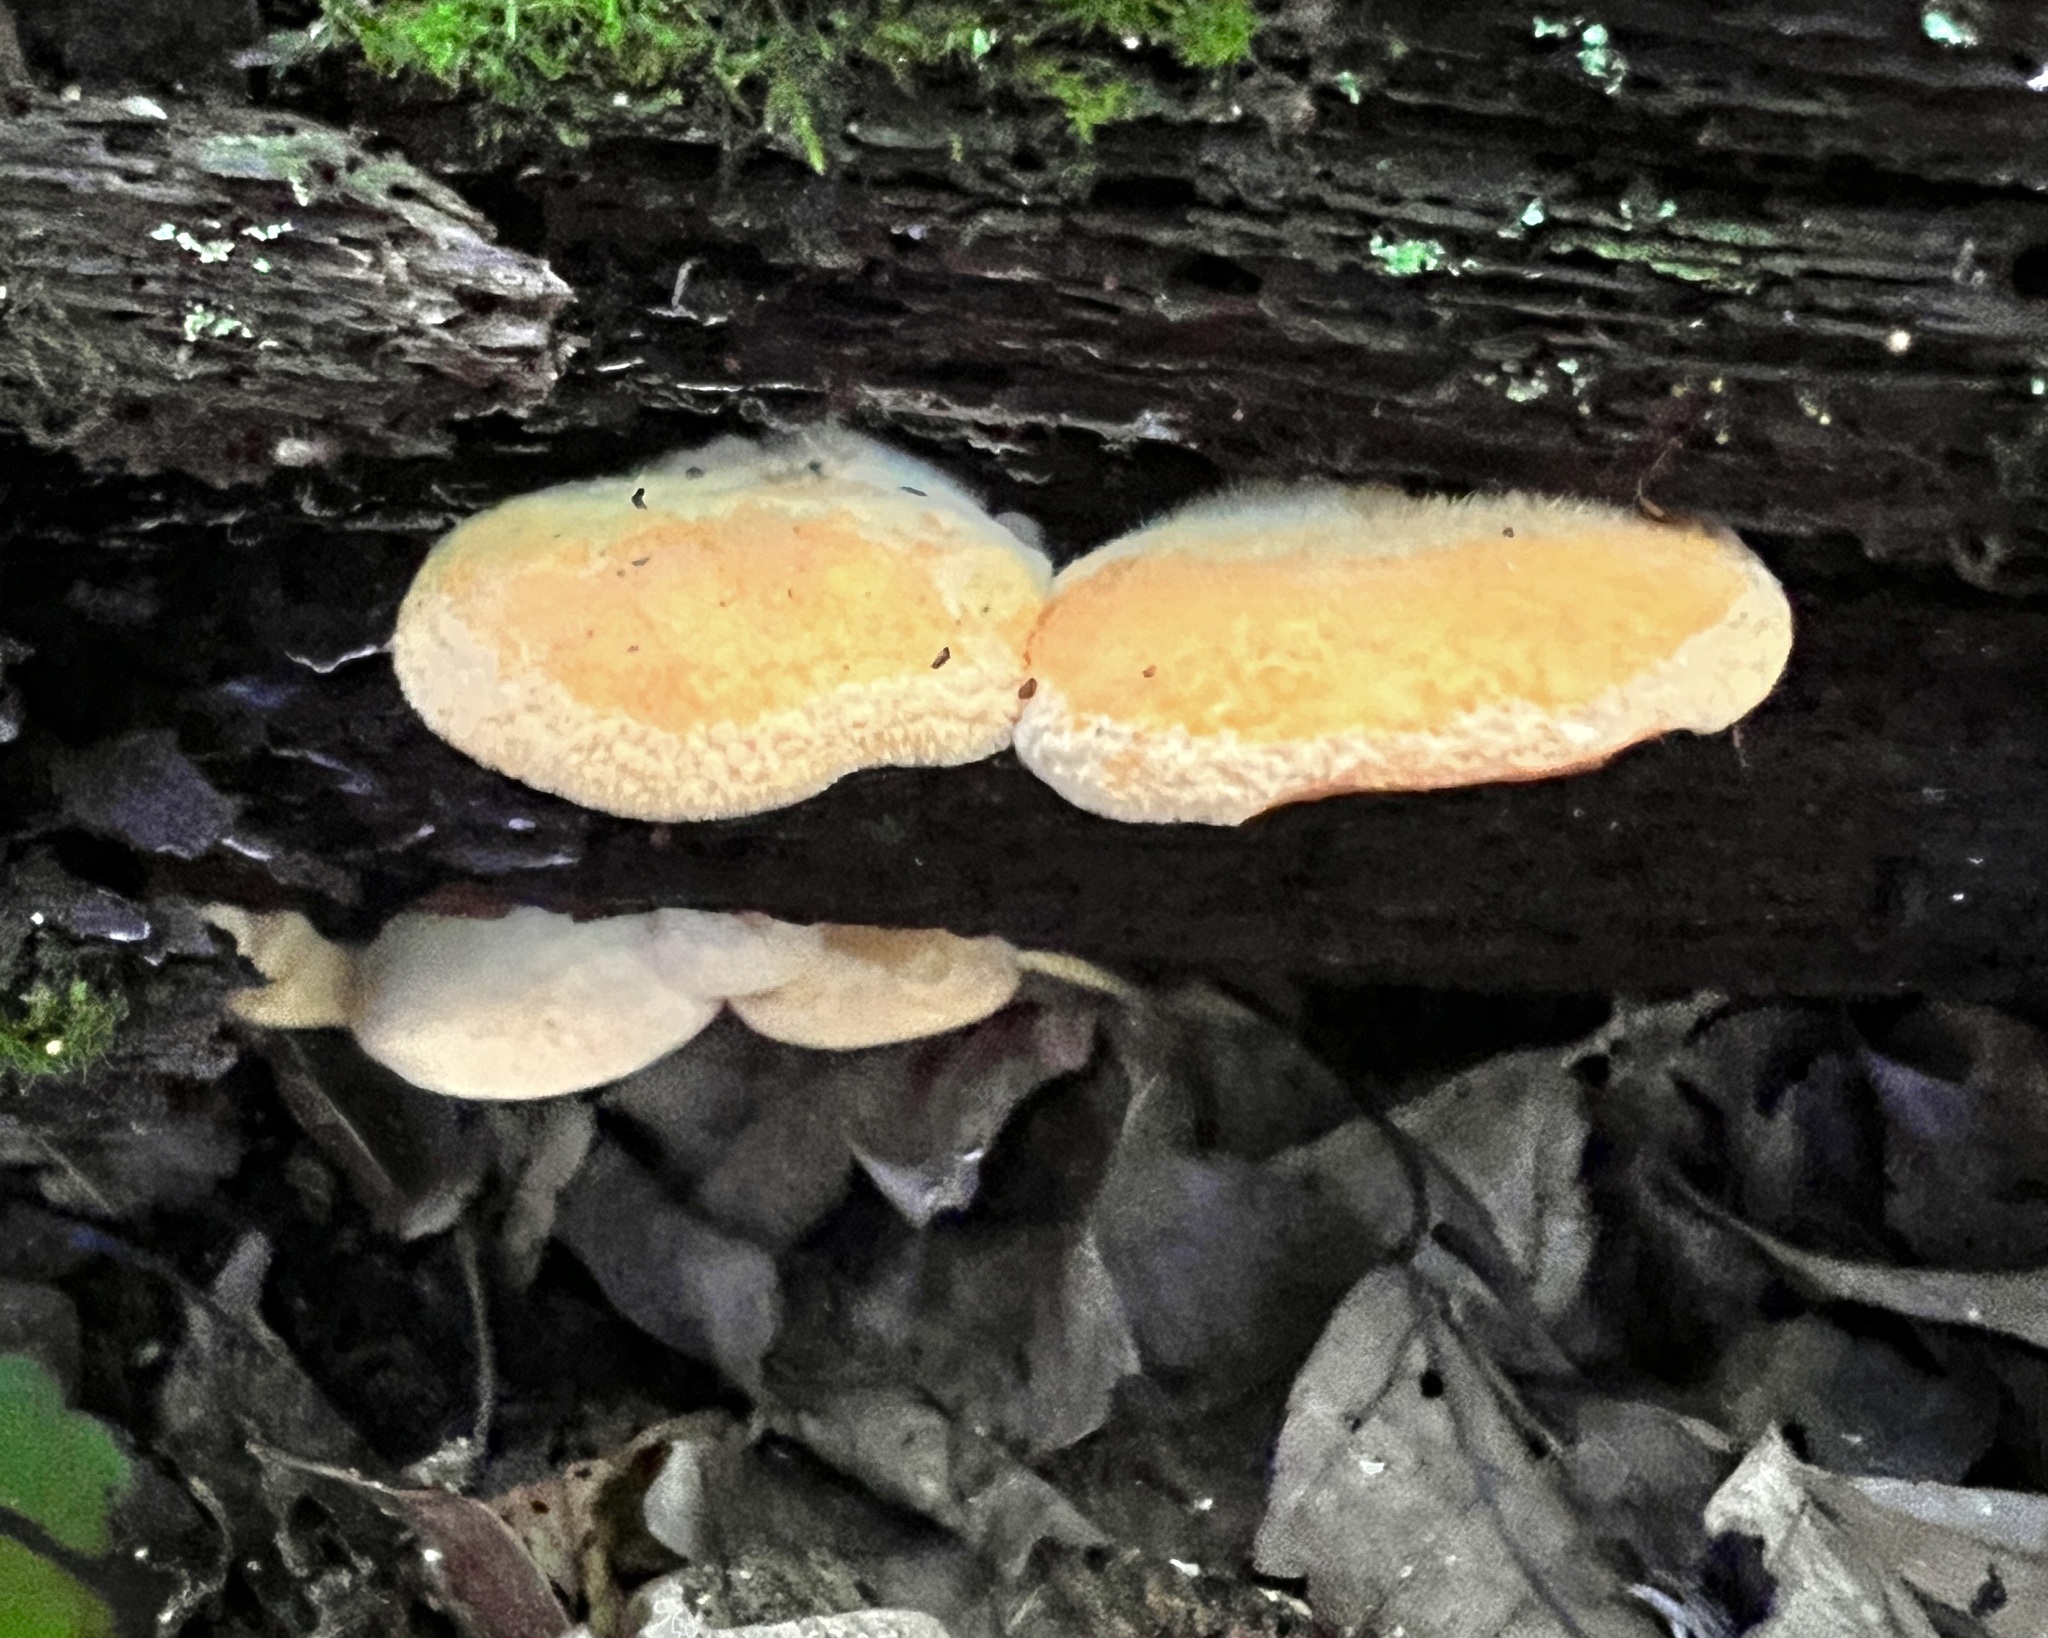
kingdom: Fungi
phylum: Basidiomycota
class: Agaricomycetes
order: Agaricales
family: Phyllotopsidaceae
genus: Phyllotopsis
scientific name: Phyllotopsis nidulans
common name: Orange mock oyster
